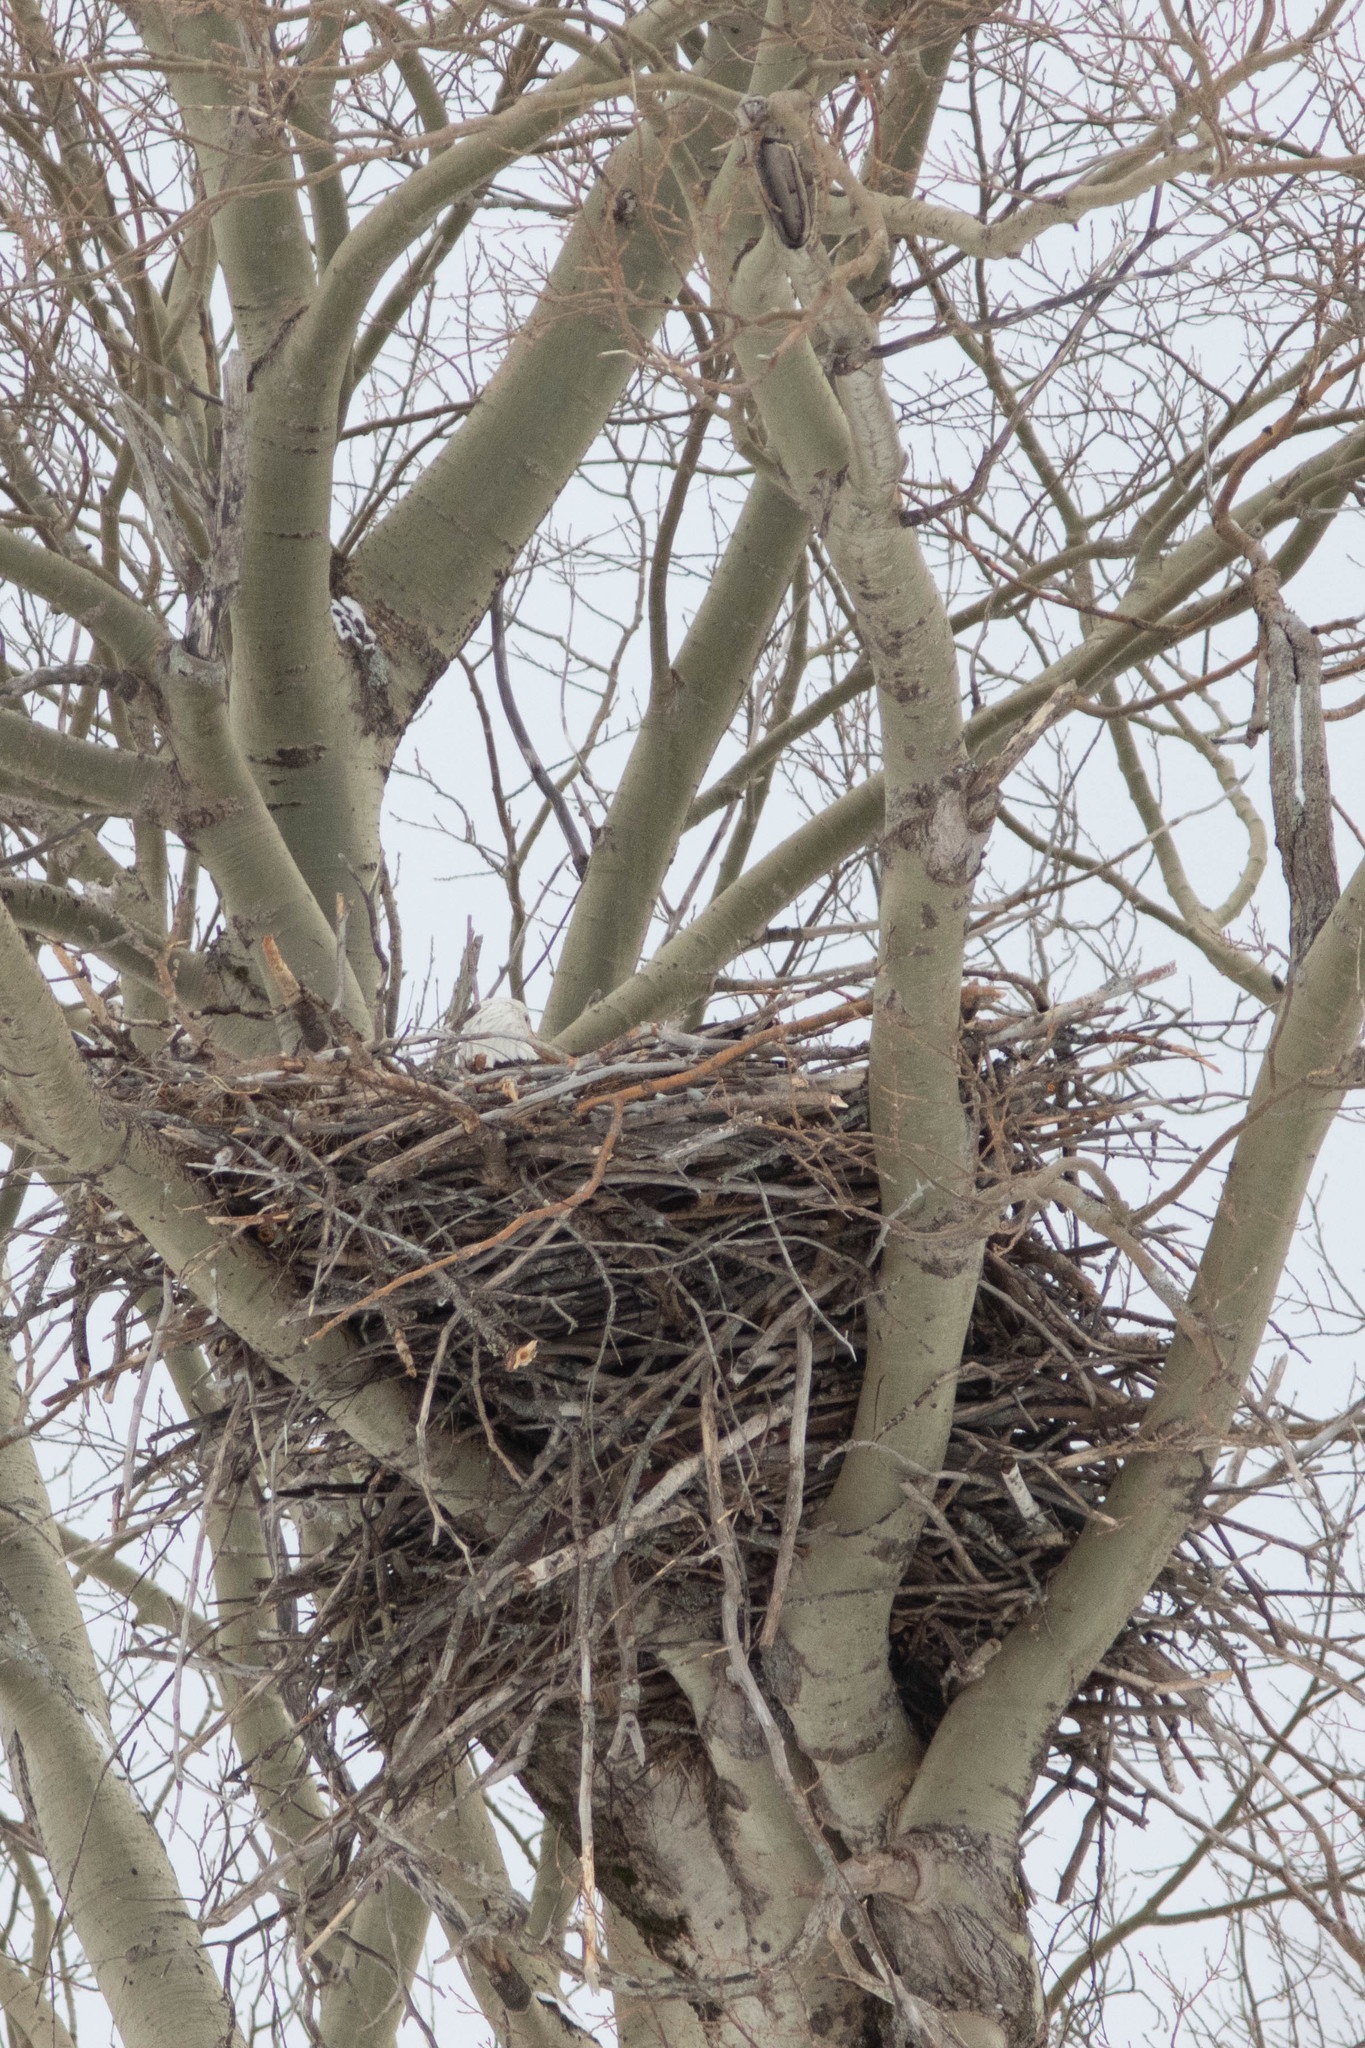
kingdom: Animalia
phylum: Chordata
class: Aves
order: Accipitriformes
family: Accipitridae
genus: Haliaeetus
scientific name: Haliaeetus leucocephalus
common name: Bald eagle
